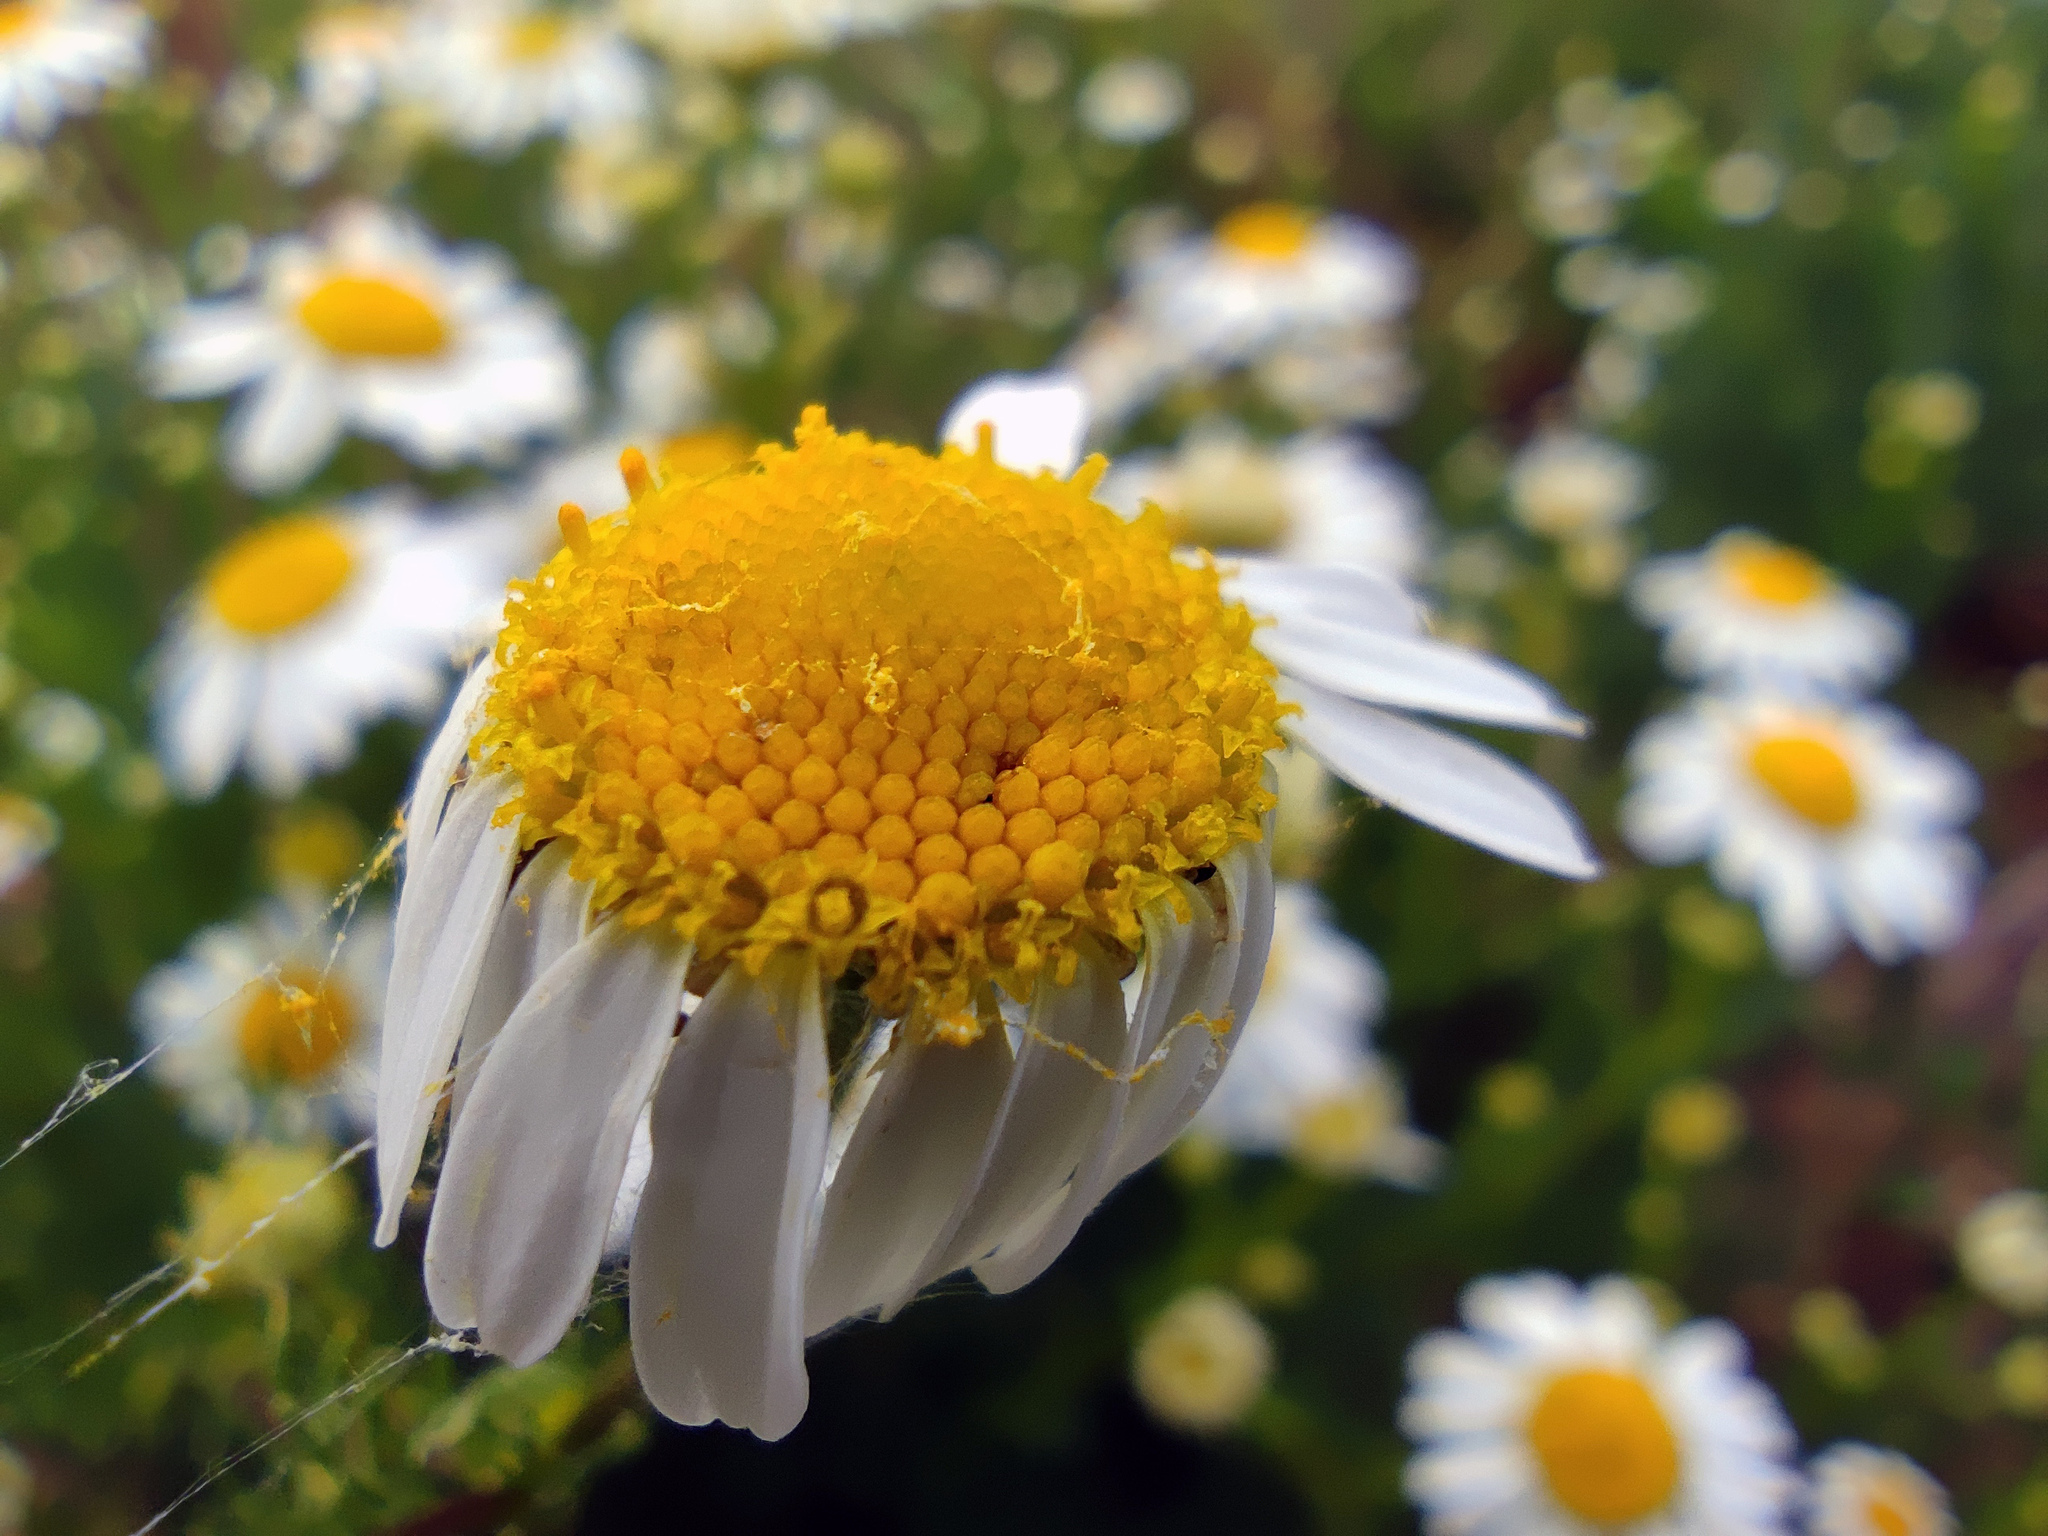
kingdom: Plantae
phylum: Tracheophyta
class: Magnoliopsida
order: Asterales
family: Asteraceae
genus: Tripleurospermum
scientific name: Tripleurospermum inodorum
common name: Scentless mayweed
